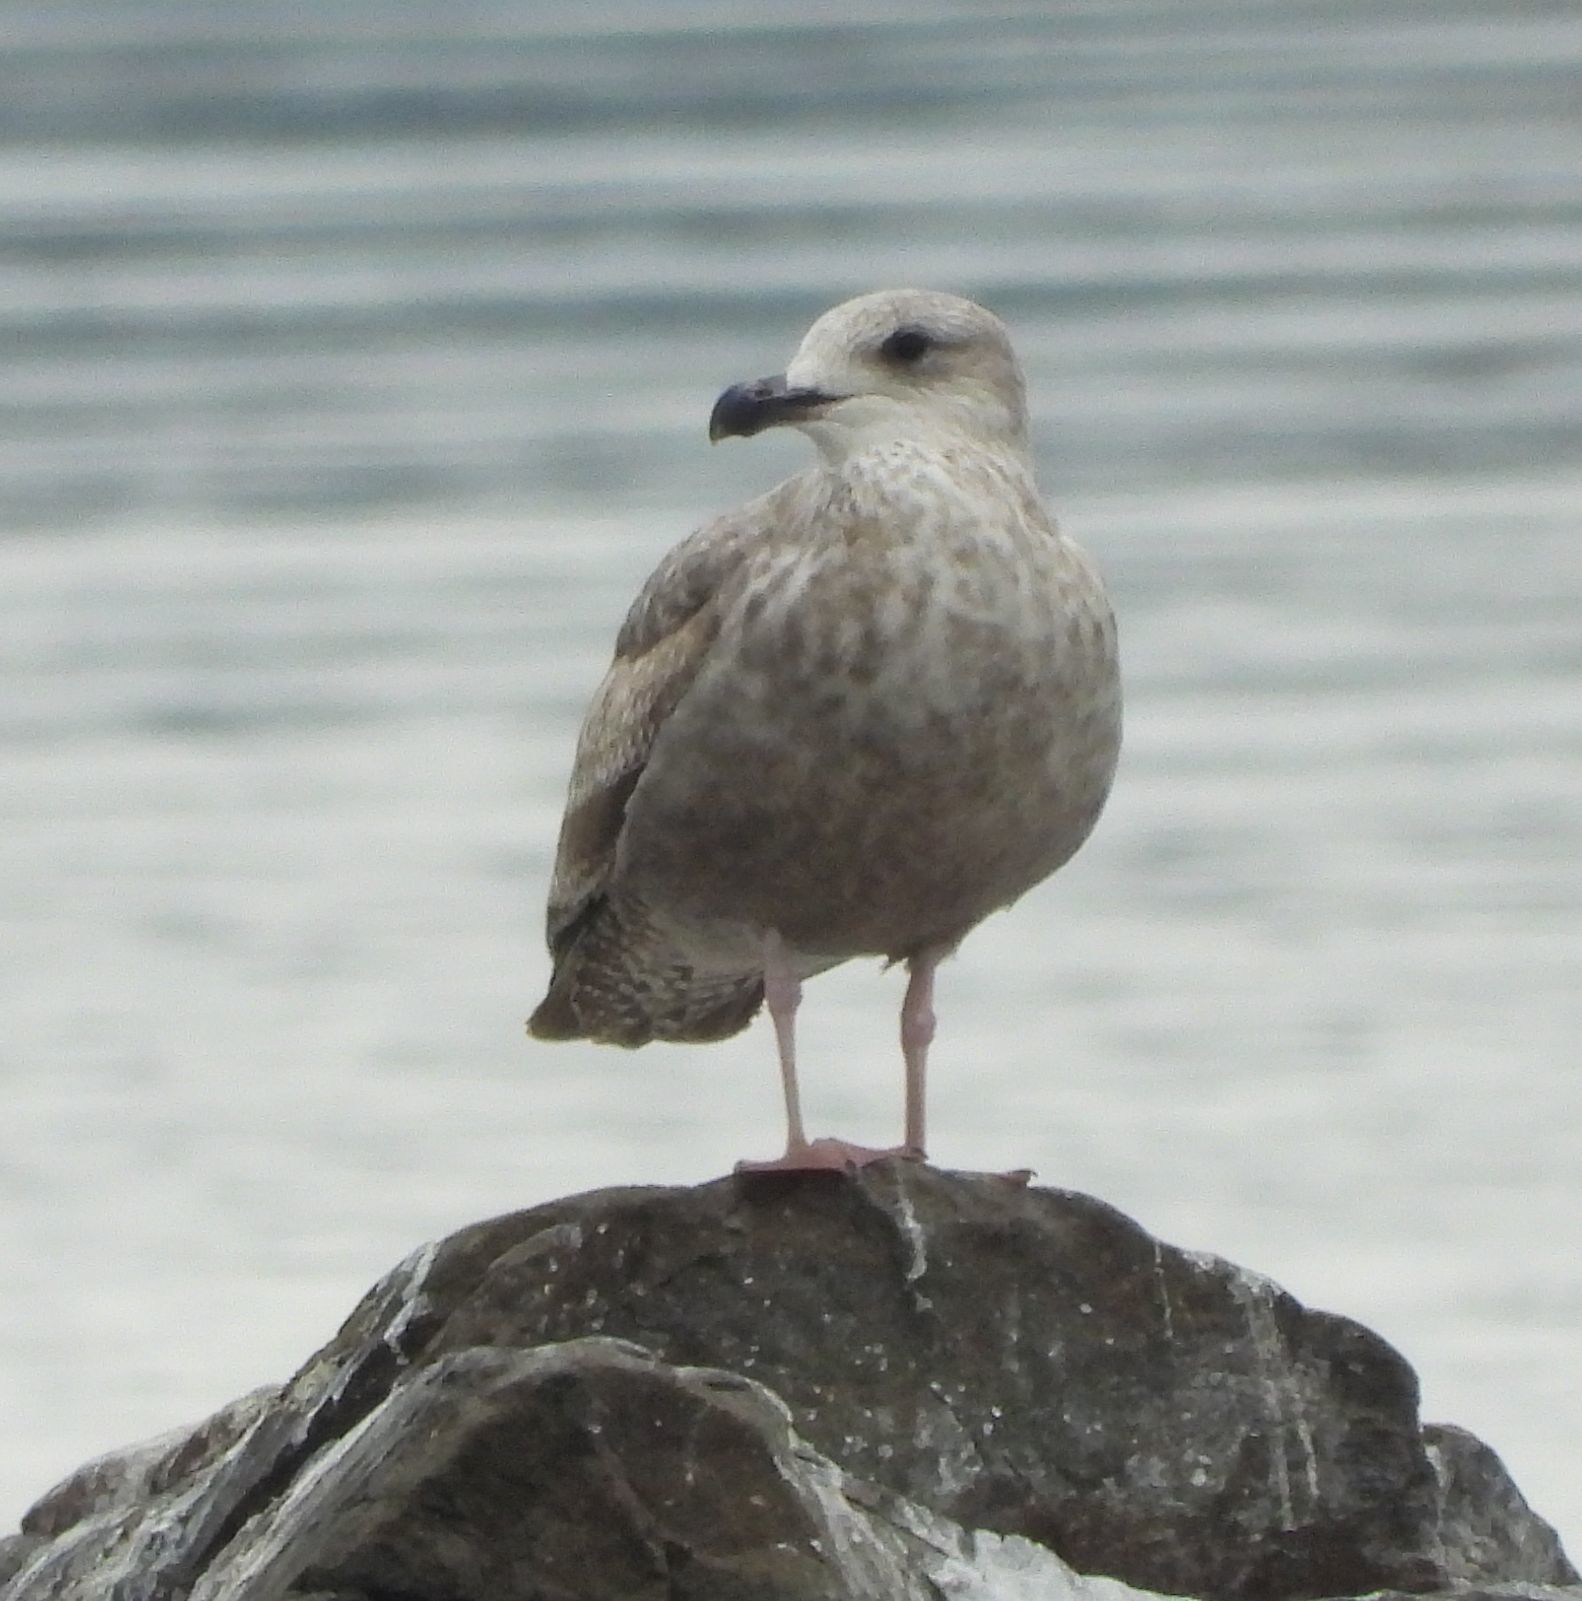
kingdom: Animalia
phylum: Chordata
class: Aves
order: Charadriiformes
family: Laridae
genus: Larus
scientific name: Larus argentatus
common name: Herring gull
